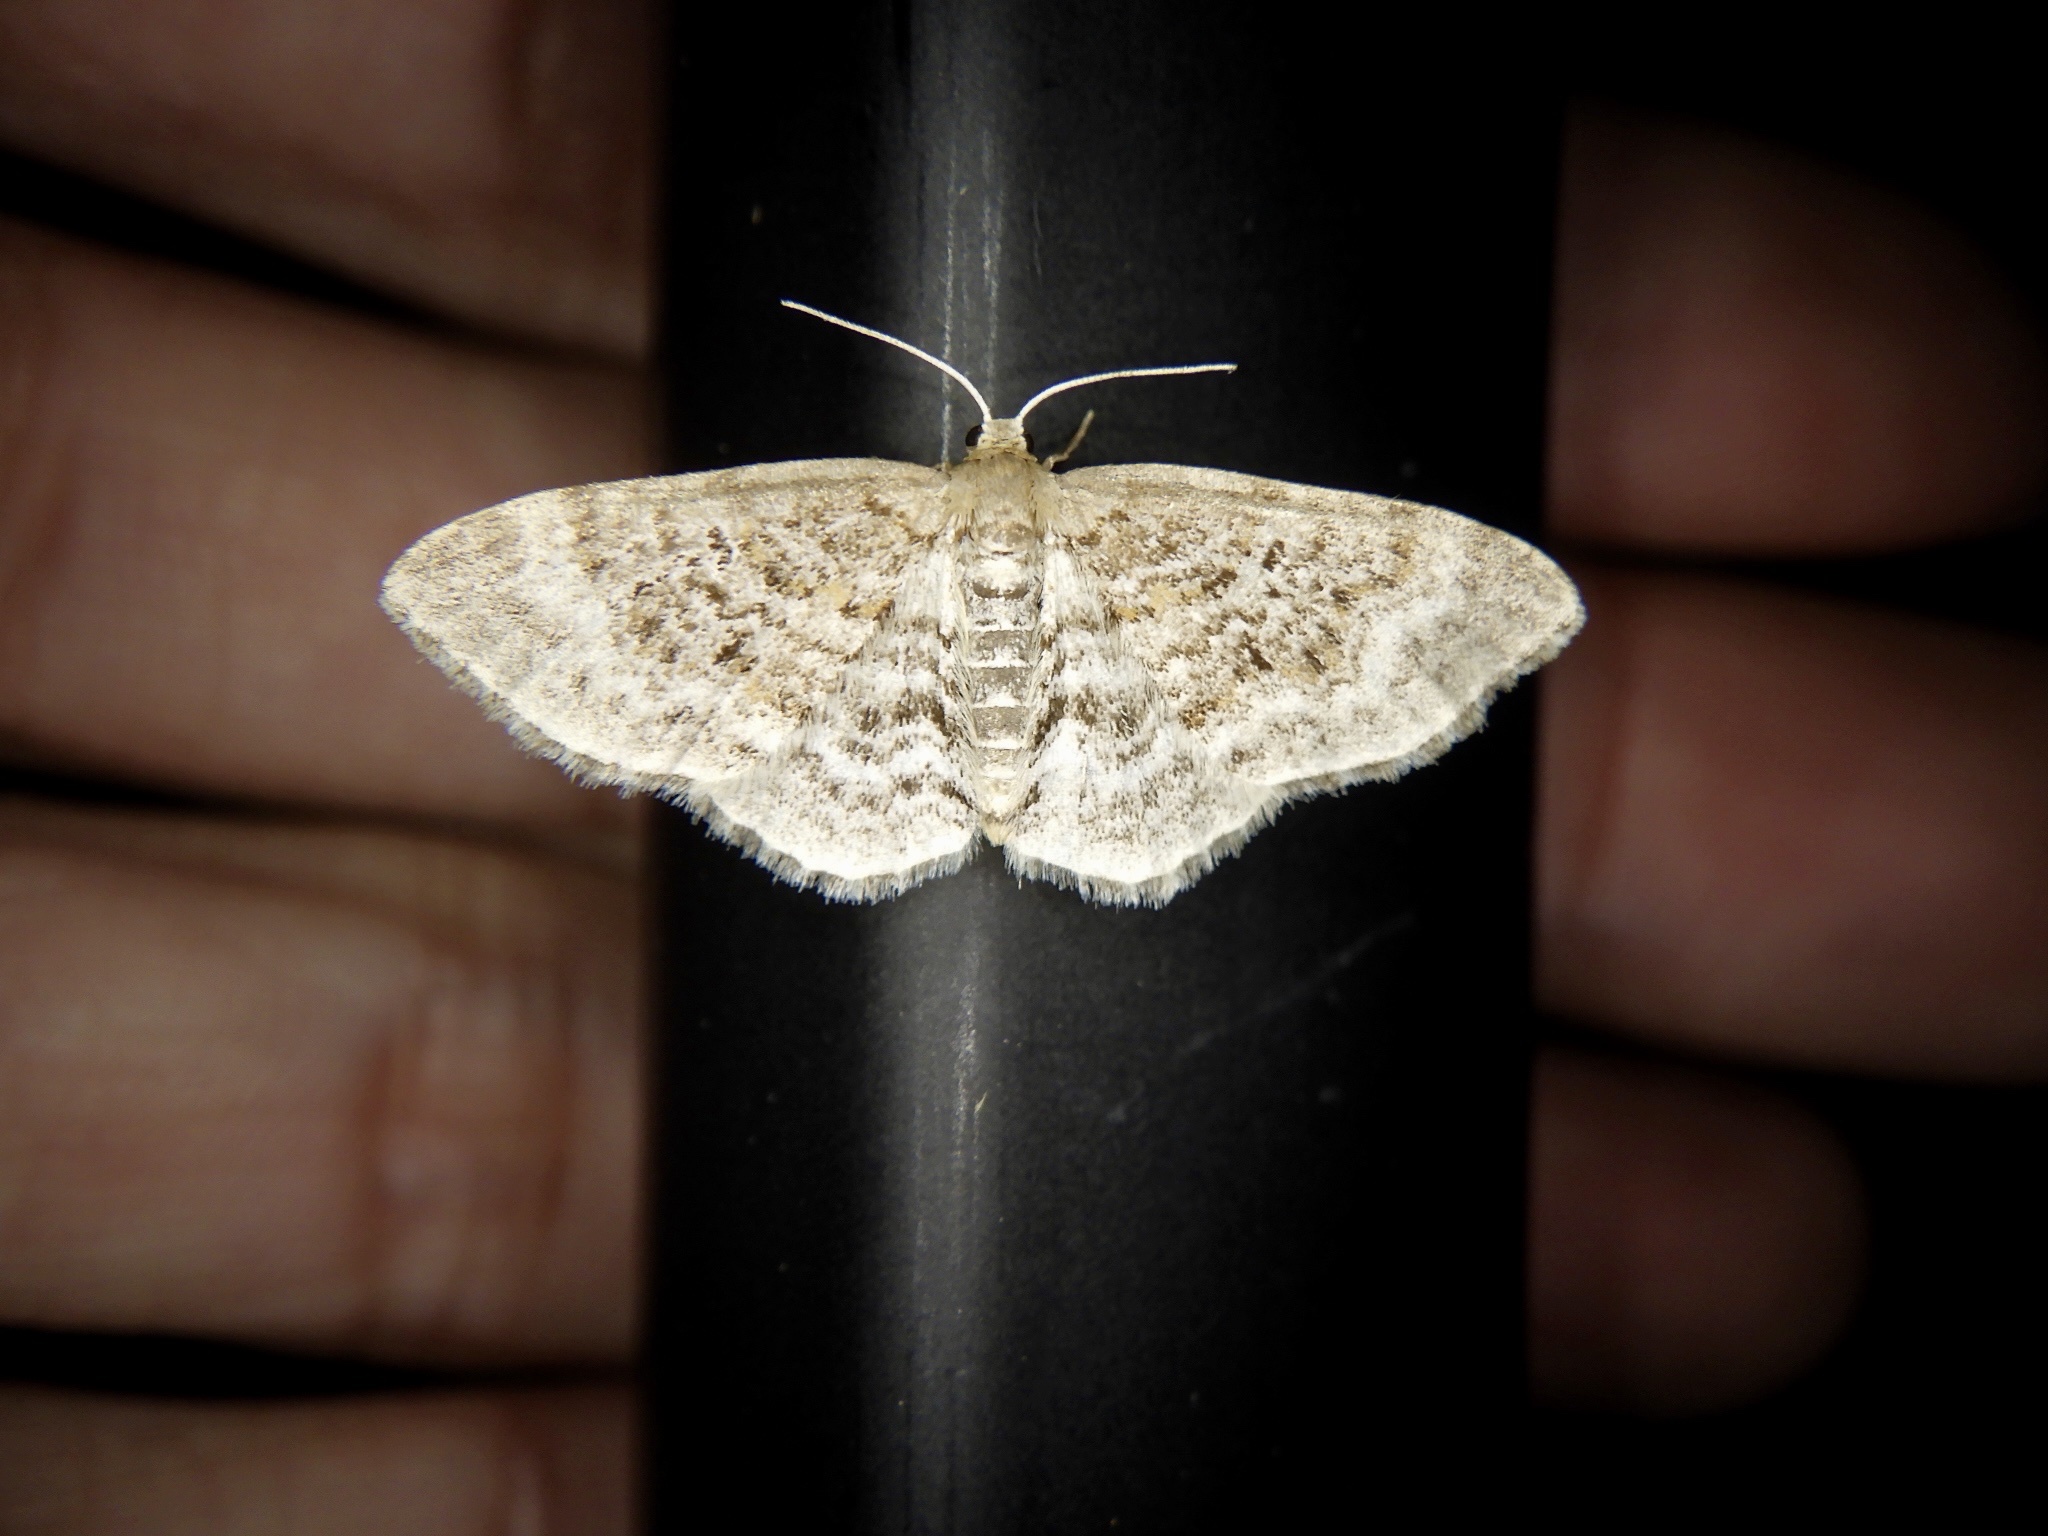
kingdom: Animalia
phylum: Arthropoda
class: Insecta
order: Lepidoptera
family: Geometridae
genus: Hydrelia
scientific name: Hydrelia nisaria
